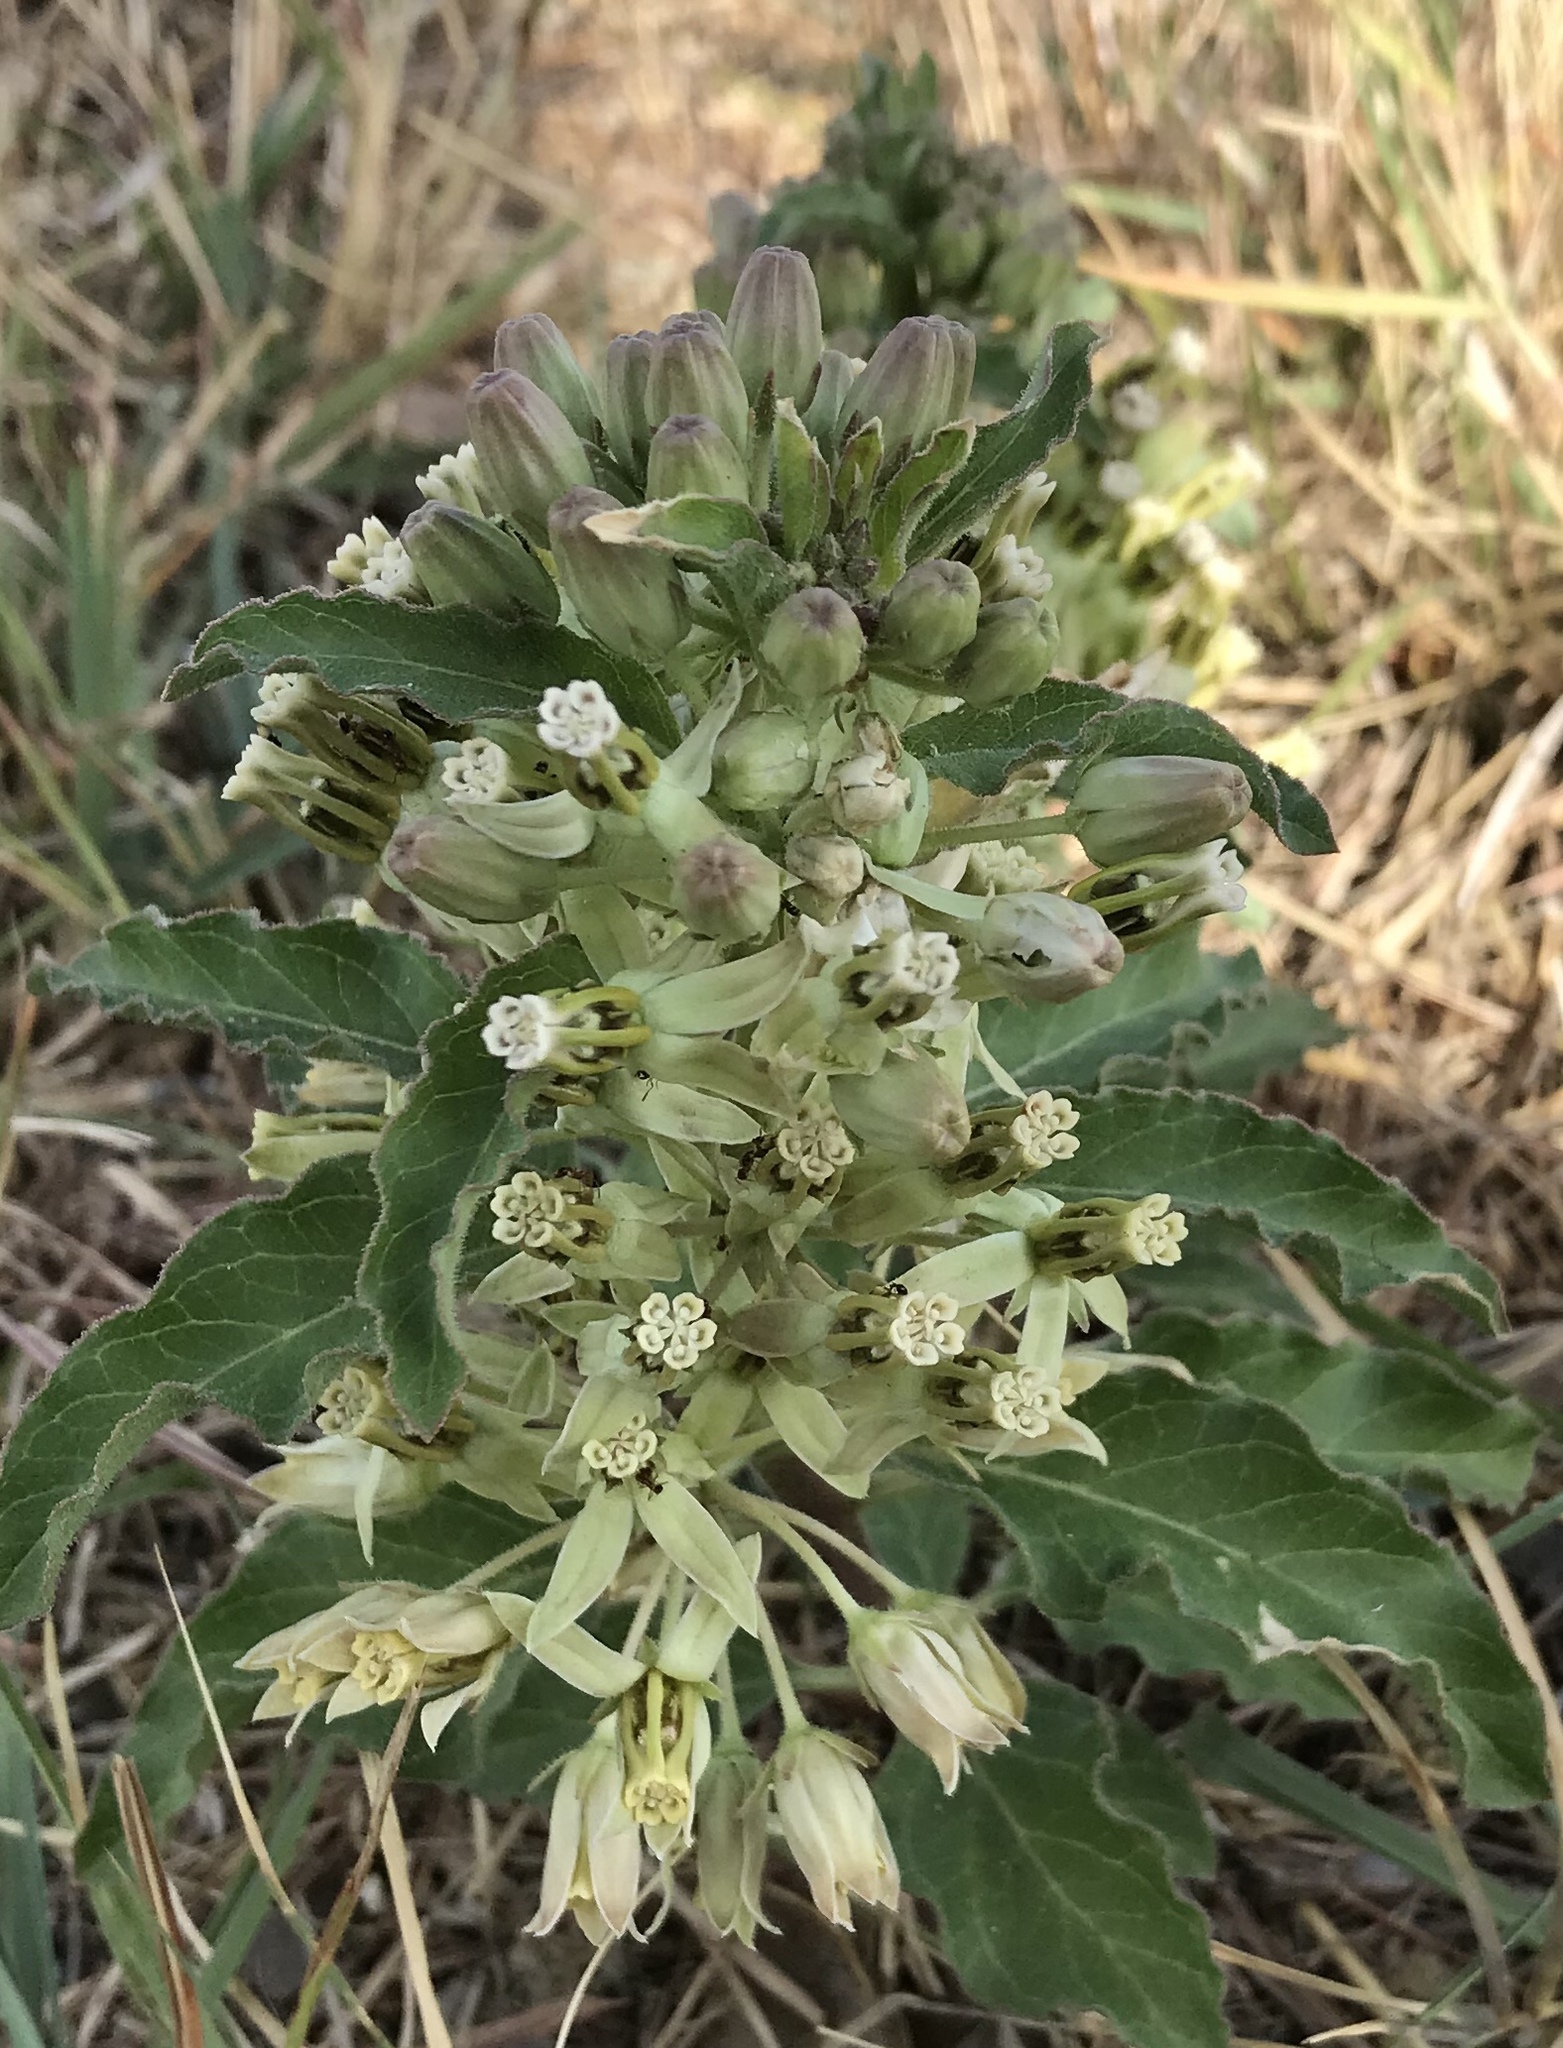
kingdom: Plantae
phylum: Tracheophyta
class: Magnoliopsida
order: Gentianales
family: Apocynaceae
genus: Asclepias
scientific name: Asclepias oenotheroides
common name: Zizotes milkweed
